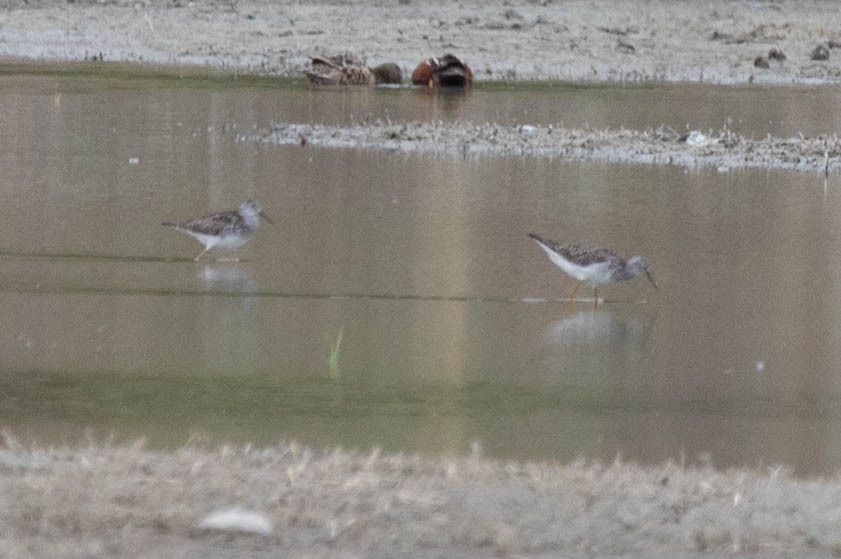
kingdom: Animalia
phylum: Chordata
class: Aves
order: Charadriiformes
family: Scolopacidae
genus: Tringa
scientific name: Tringa flavipes
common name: Lesser yellowlegs
